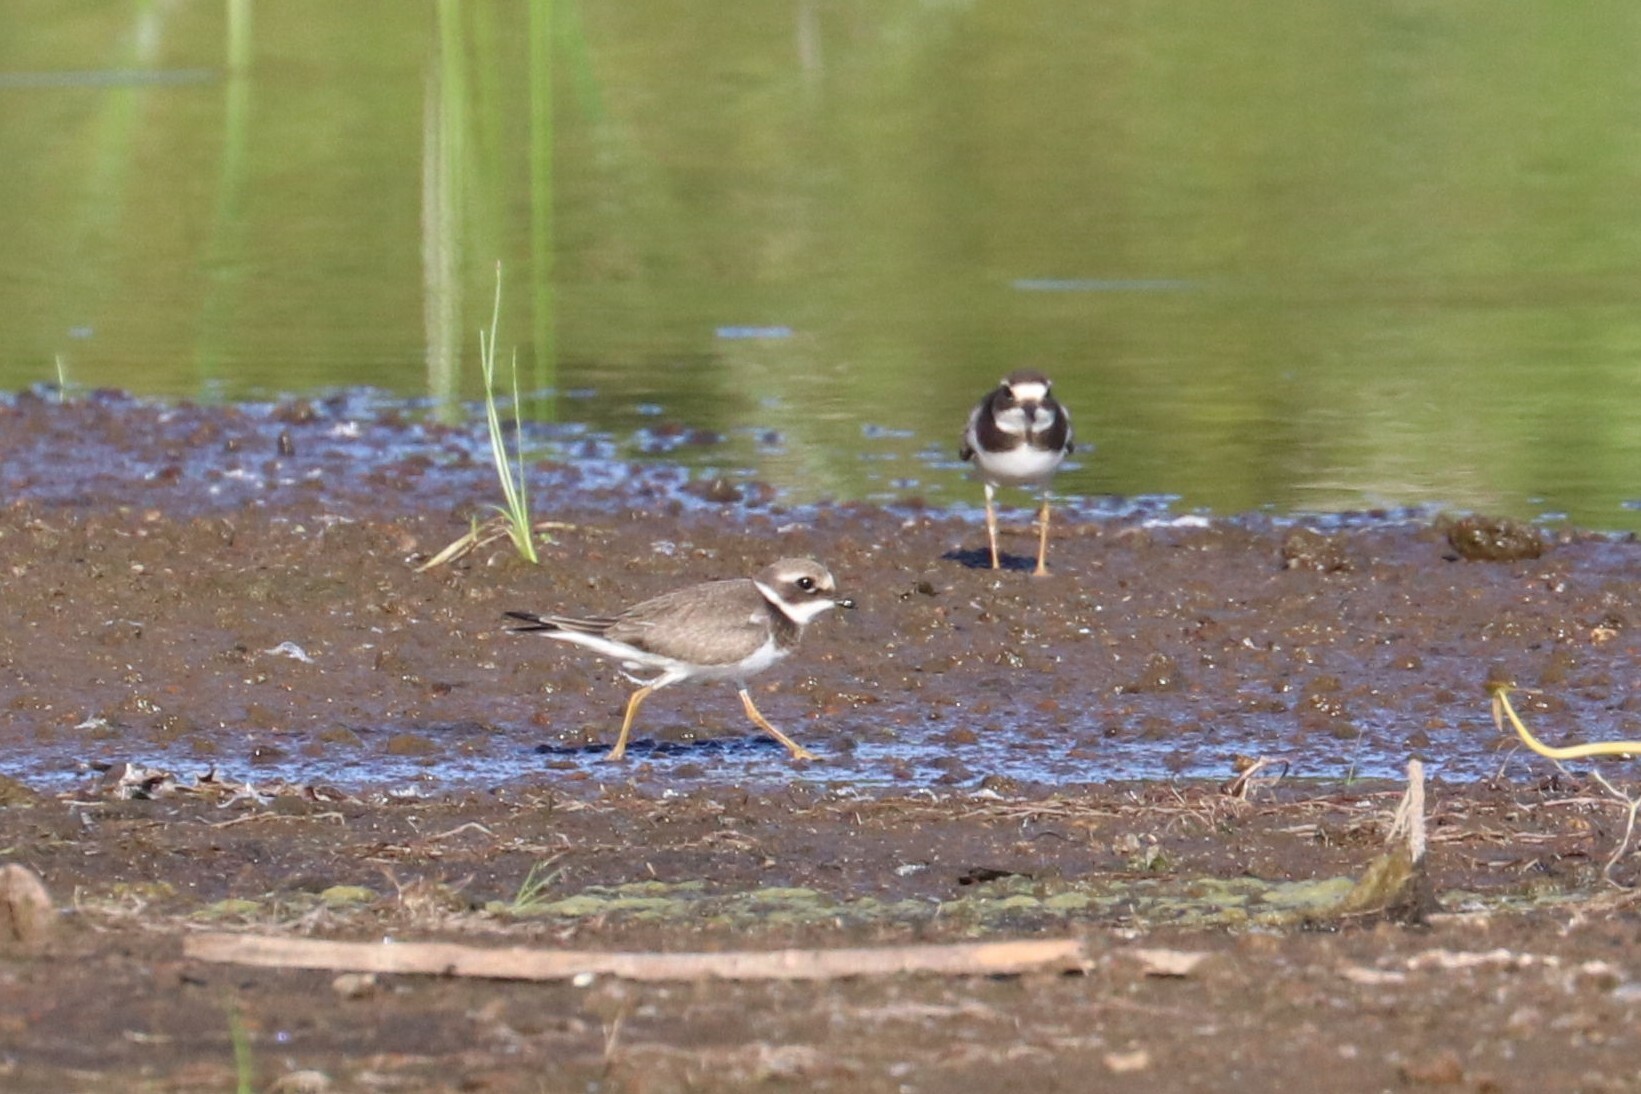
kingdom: Animalia
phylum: Chordata
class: Aves
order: Charadriiformes
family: Charadriidae
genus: Charadrius
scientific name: Charadrius hiaticula
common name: Common ringed plover
